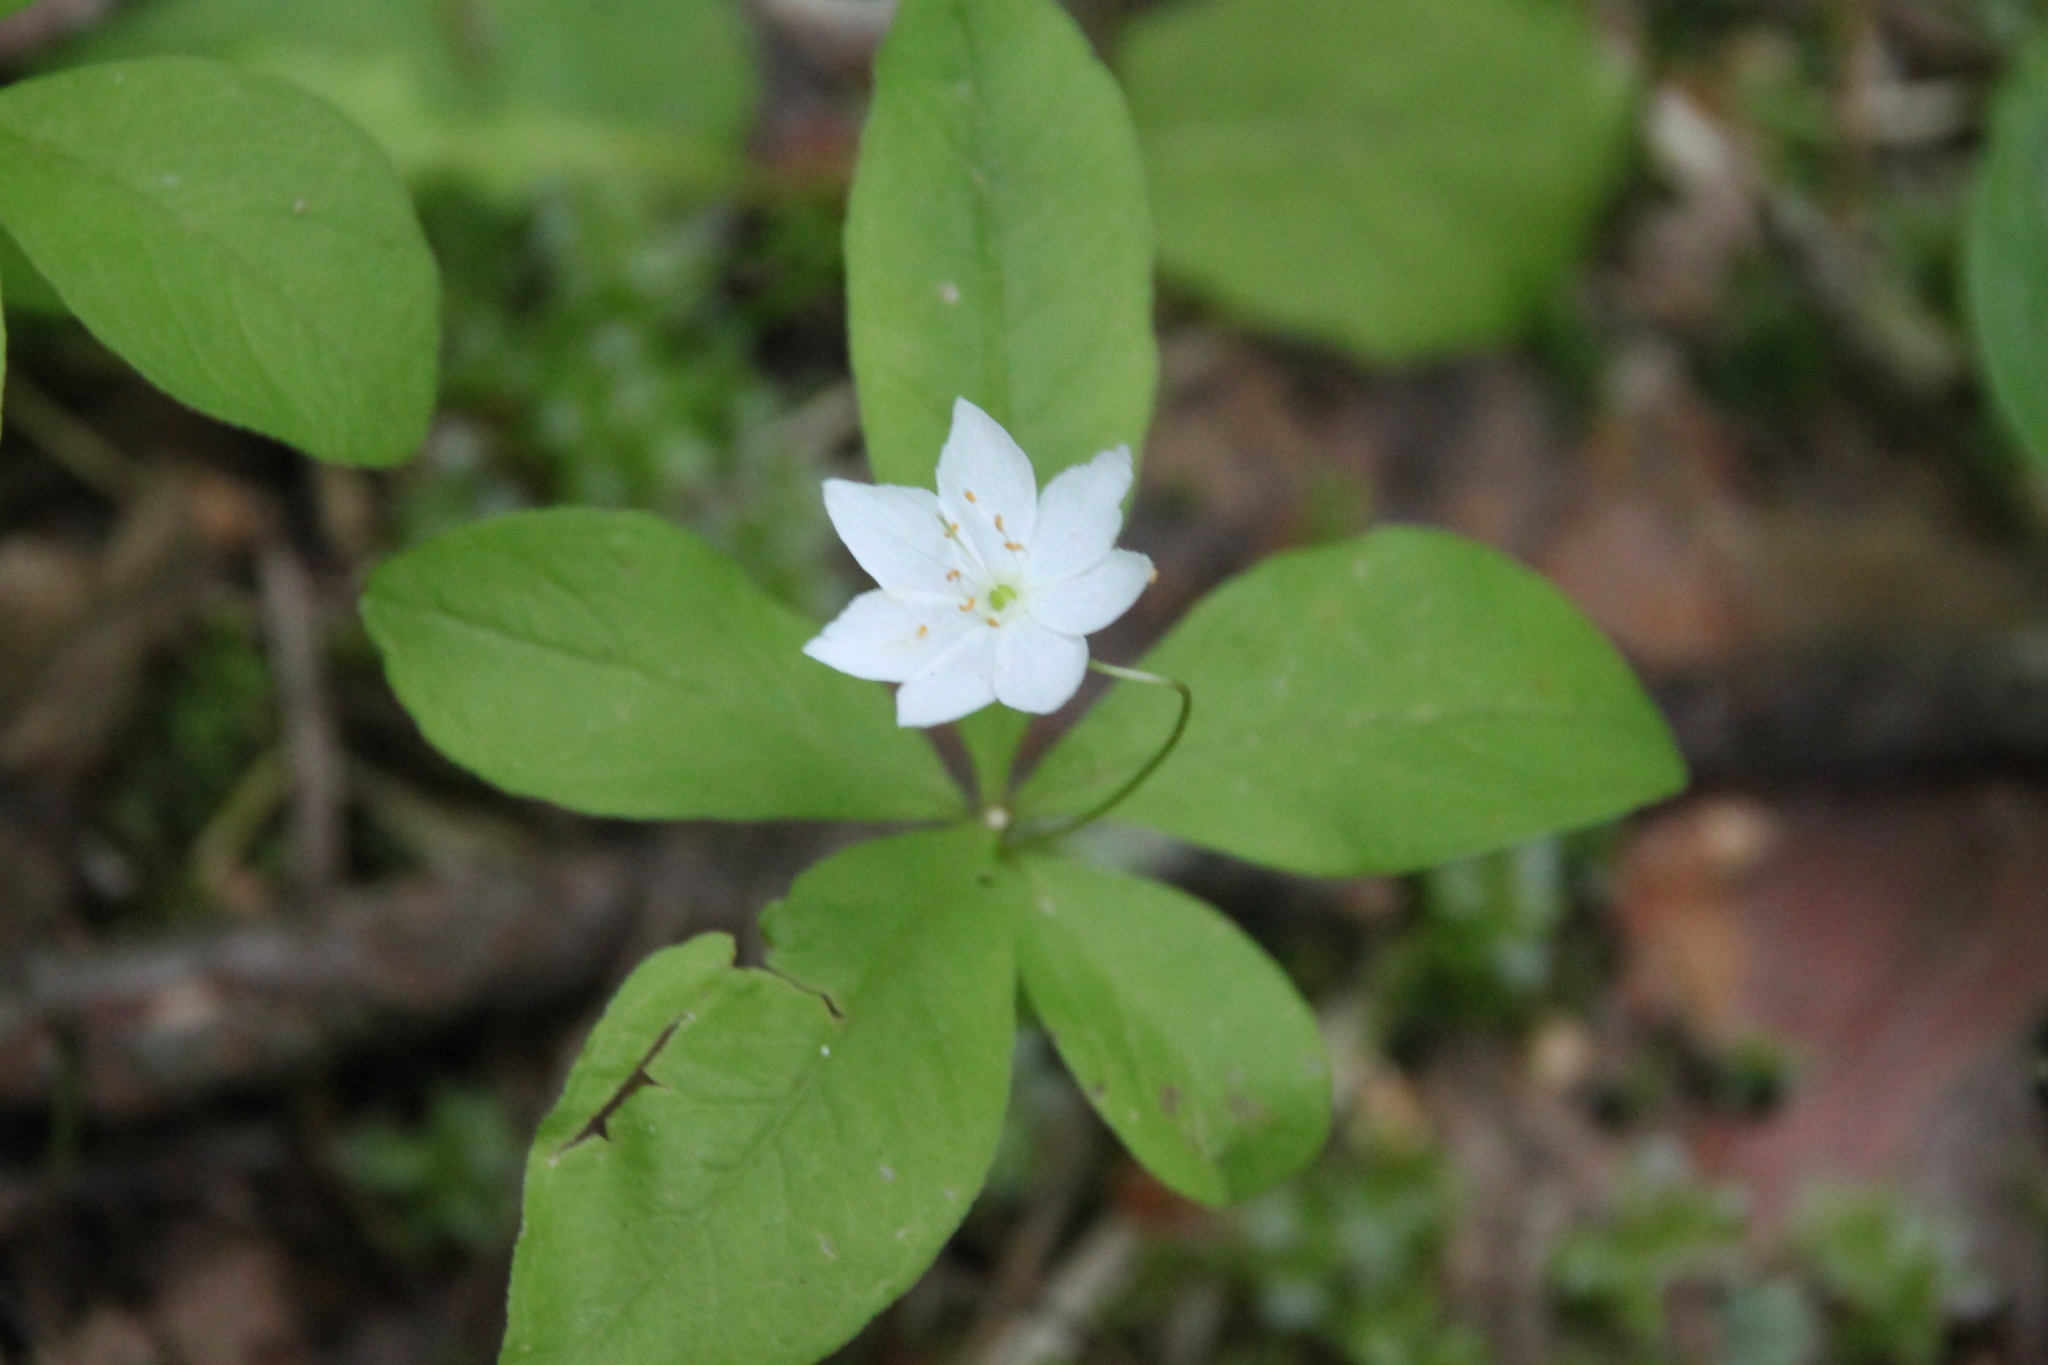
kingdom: Plantae
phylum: Tracheophyta
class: Magnoliopsida
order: Ericales
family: Primulaceae
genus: Lysimachia
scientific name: Lysimachia europaea
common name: Arctic starflower
